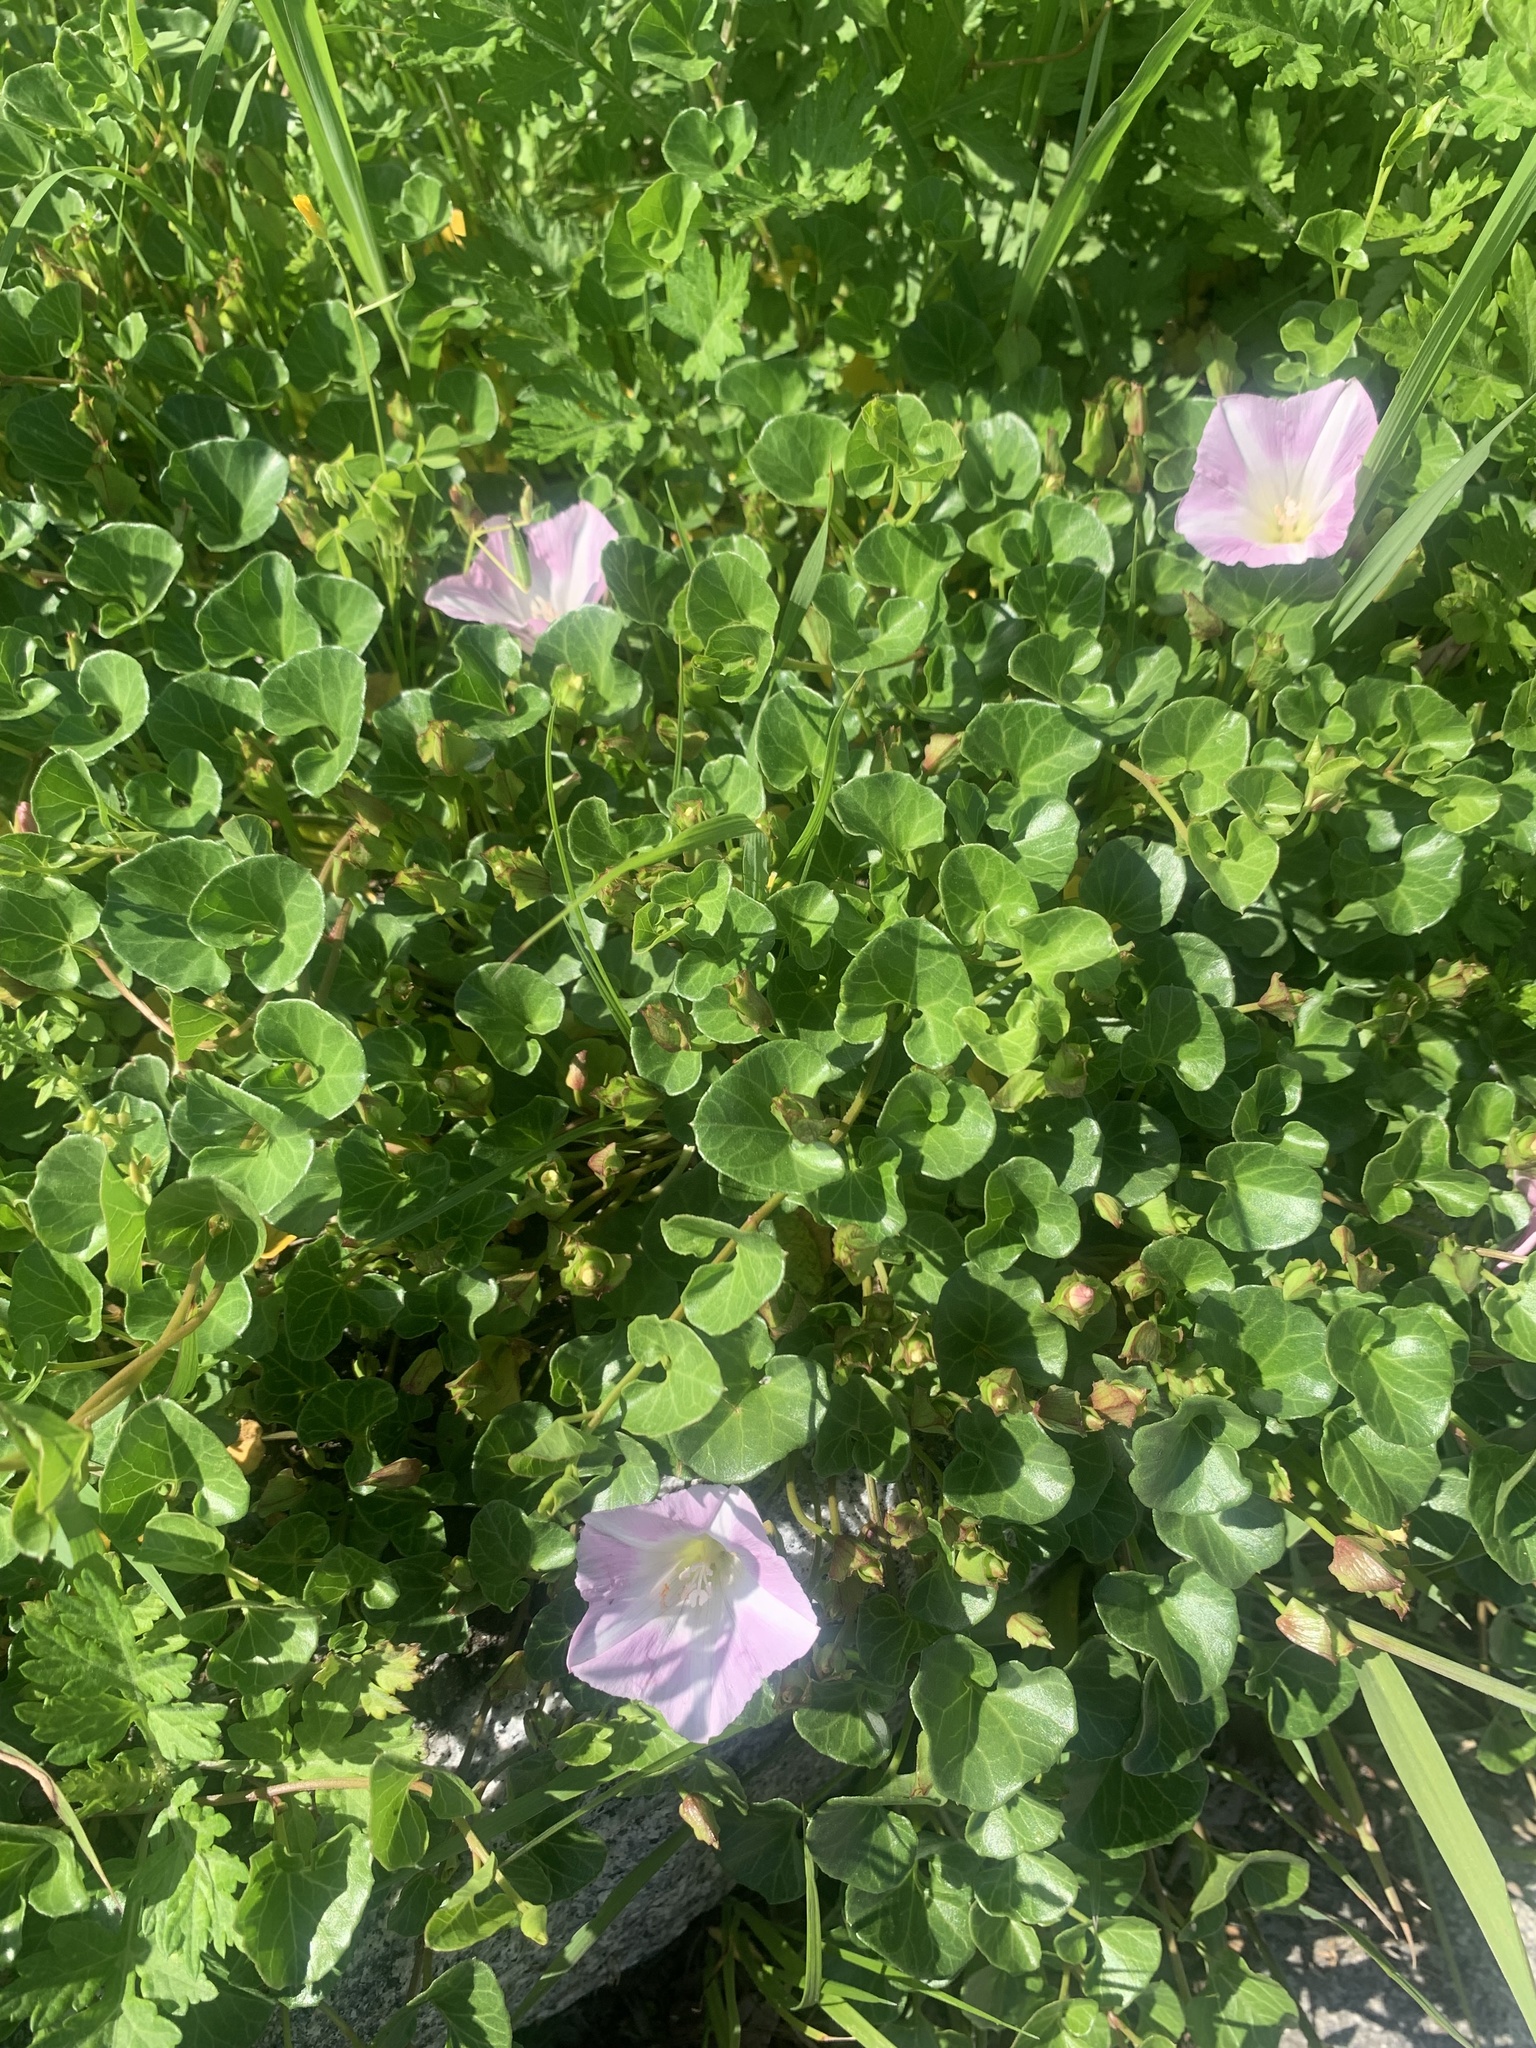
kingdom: Plantae
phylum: Tracheophyta
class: Magnoliopsida
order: Solanales
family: Convolvulaceae
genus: Calystegia
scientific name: Calystegia soldanella
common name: Sea bindweed
